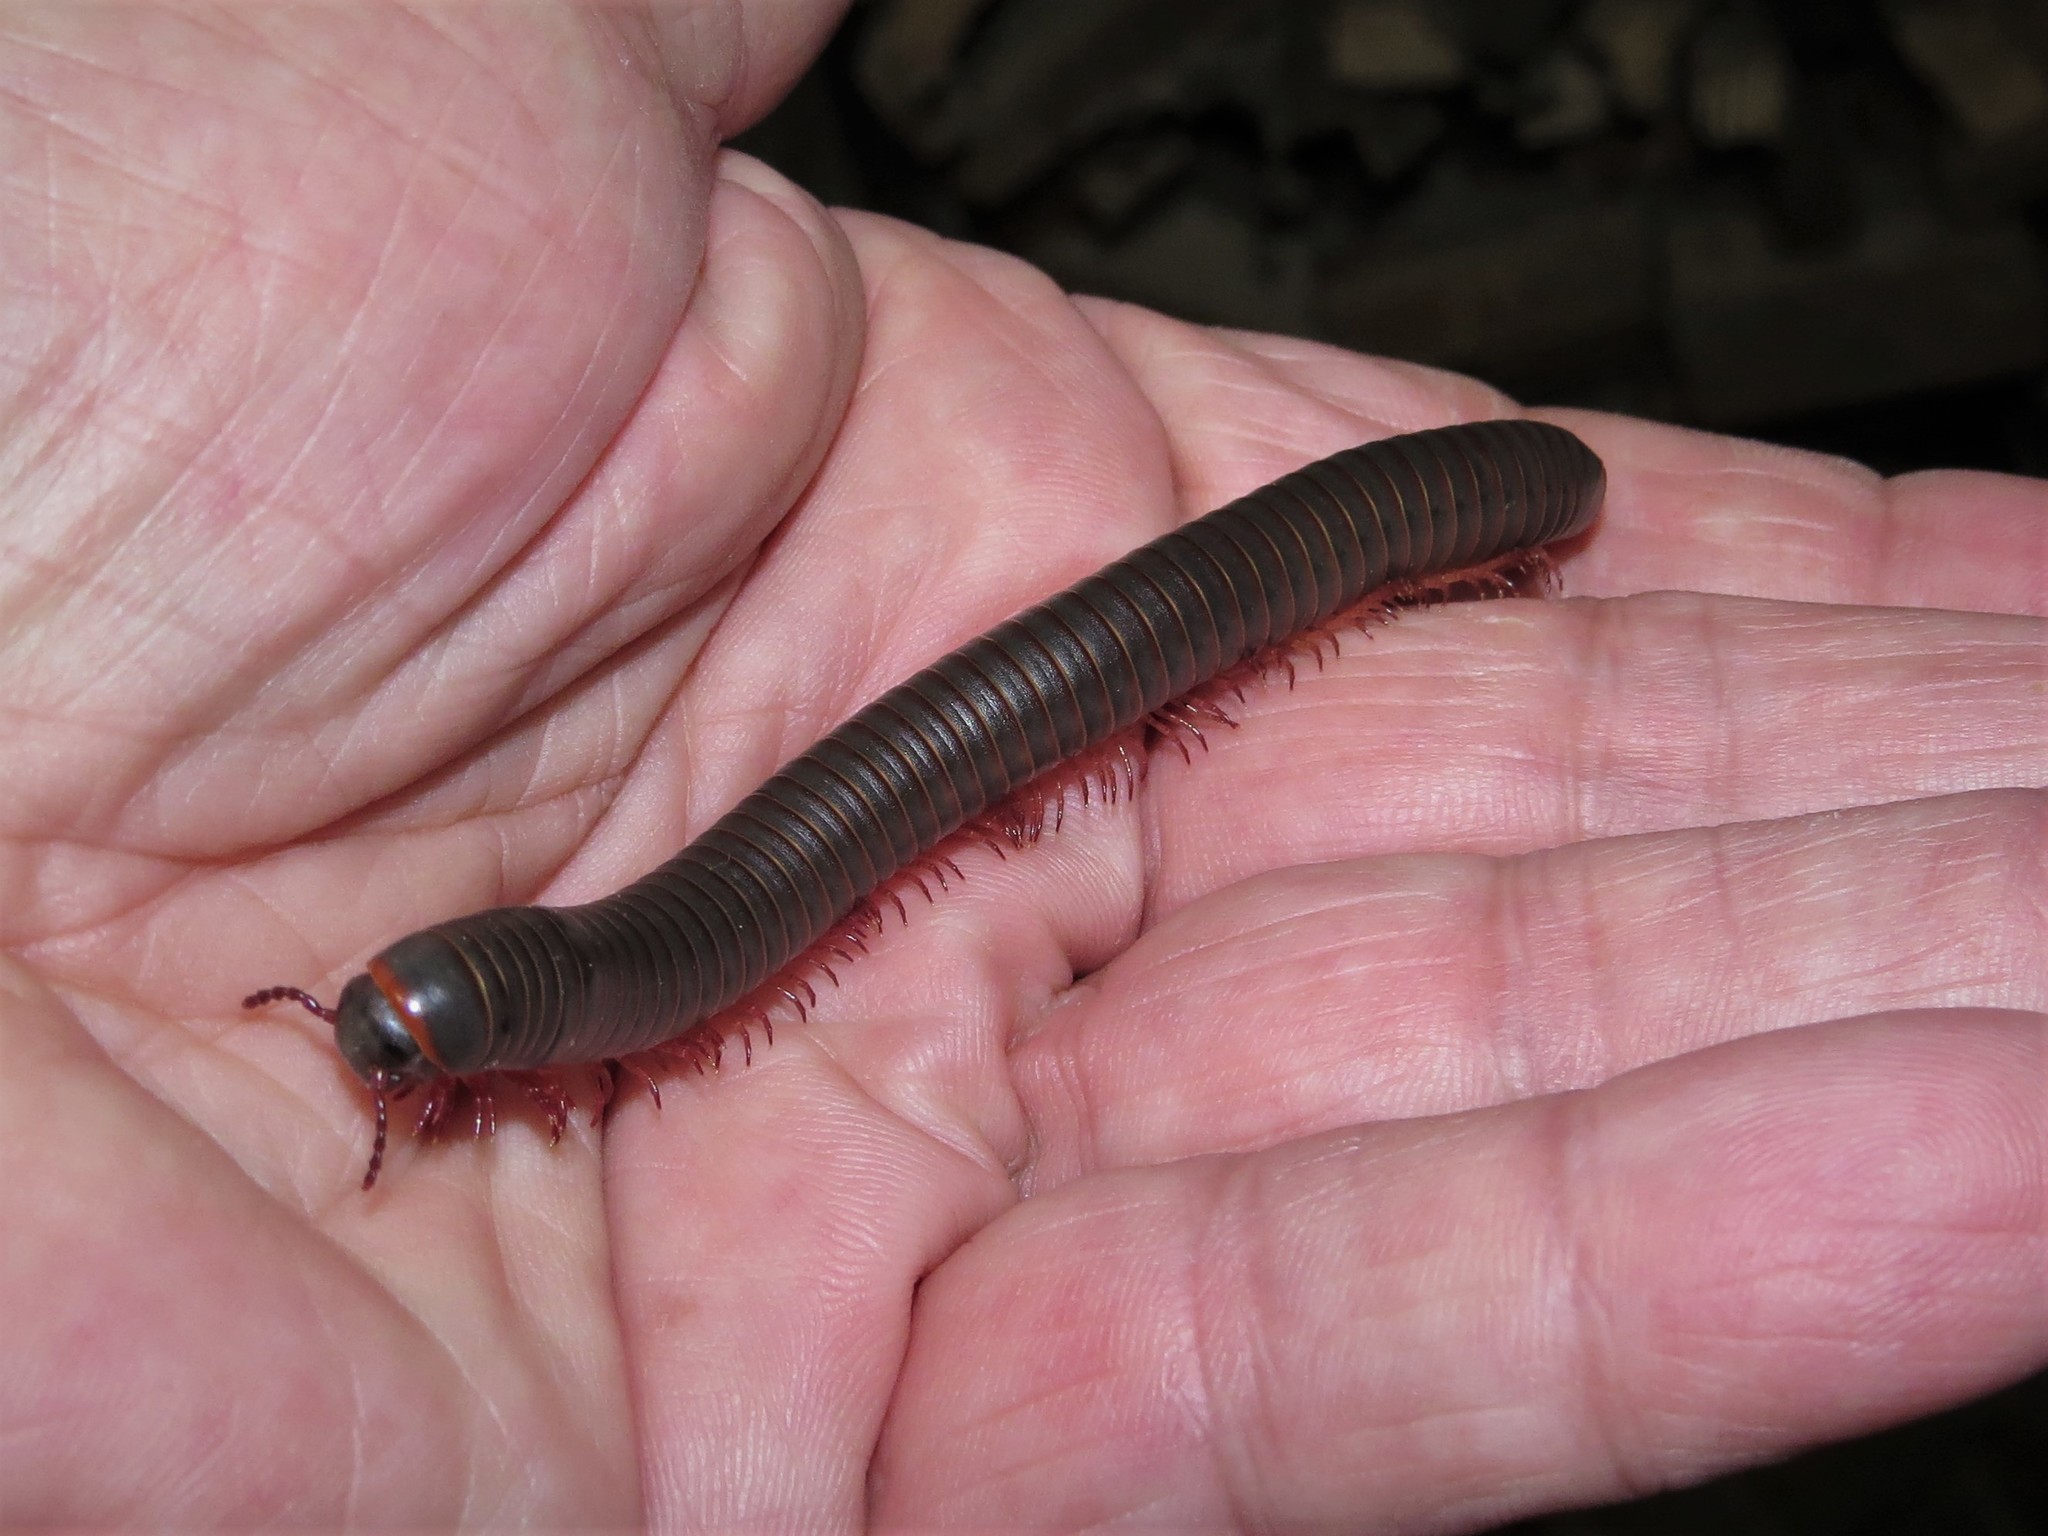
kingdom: Animalia
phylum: Arthropoda
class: Diplopoda
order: Spirobolida
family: Spirobolidae
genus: Narceus
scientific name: Narceus
